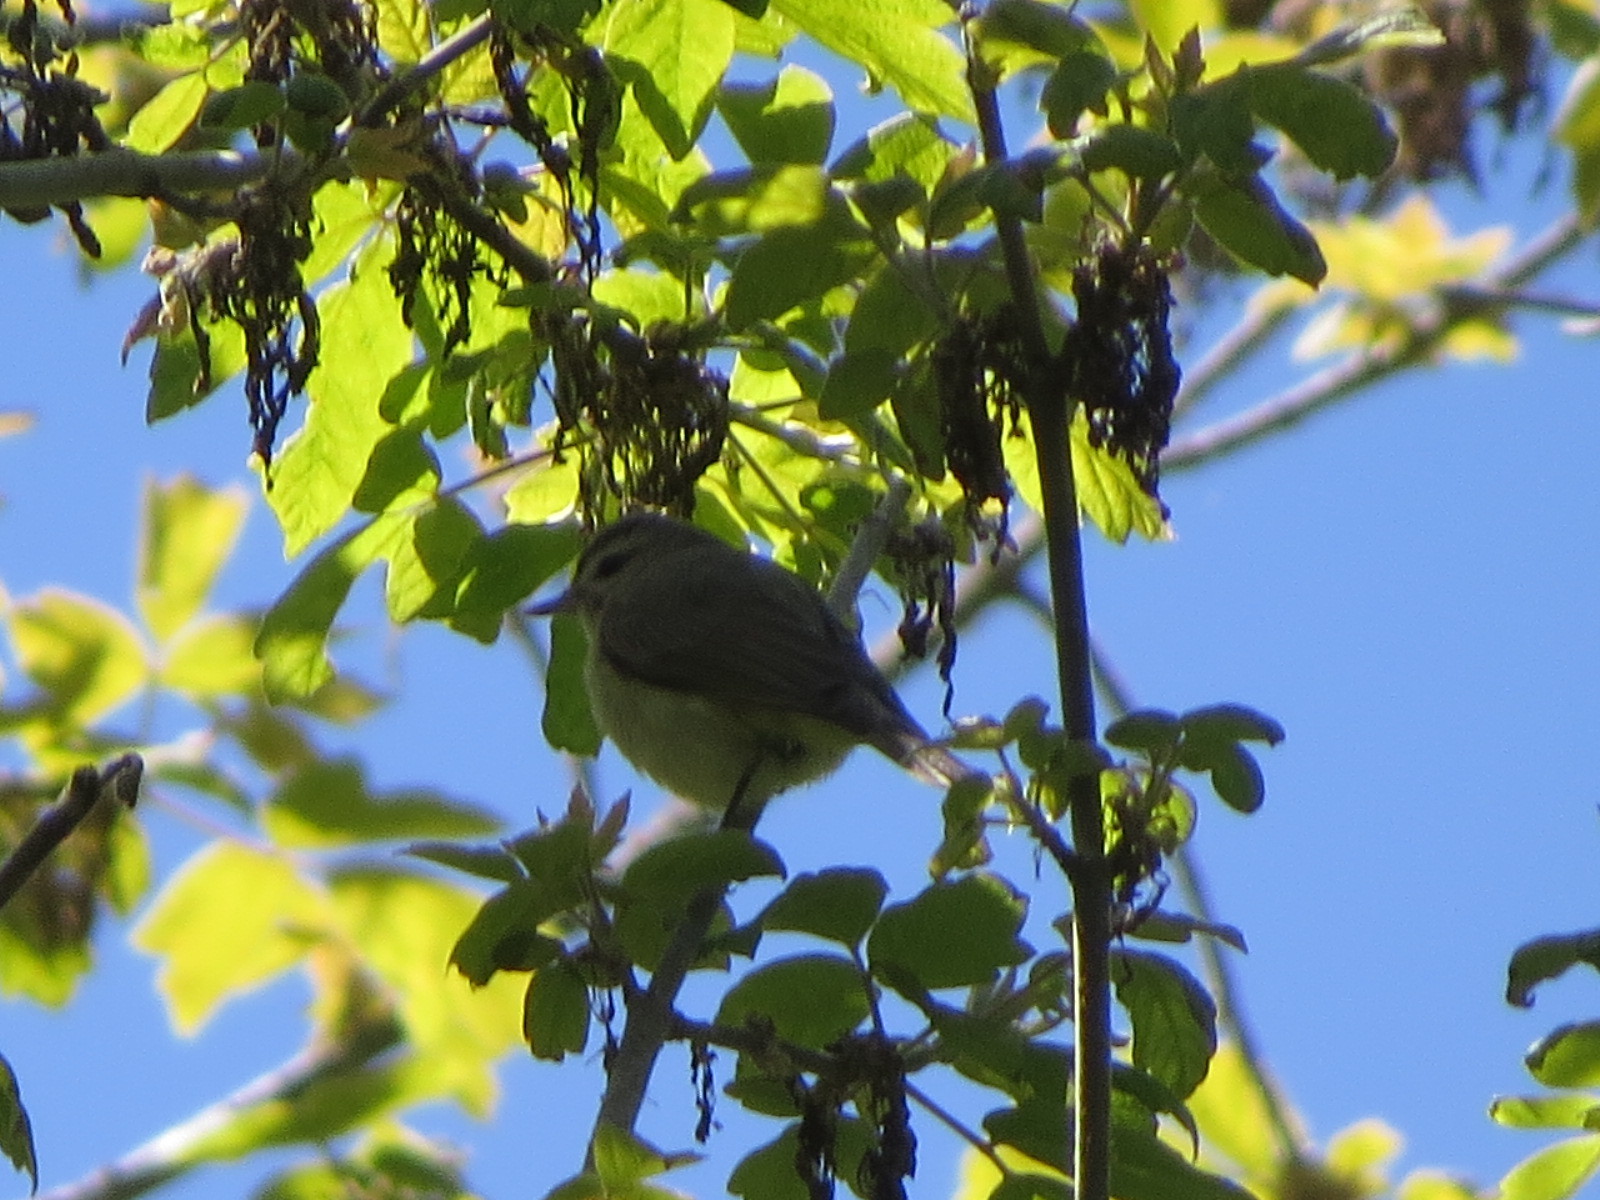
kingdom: Animalia
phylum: Chordata
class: Aves
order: Passeriformes
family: Vireonidae
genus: Vireo
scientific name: Vireo gilvus
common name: Warbling vireo
